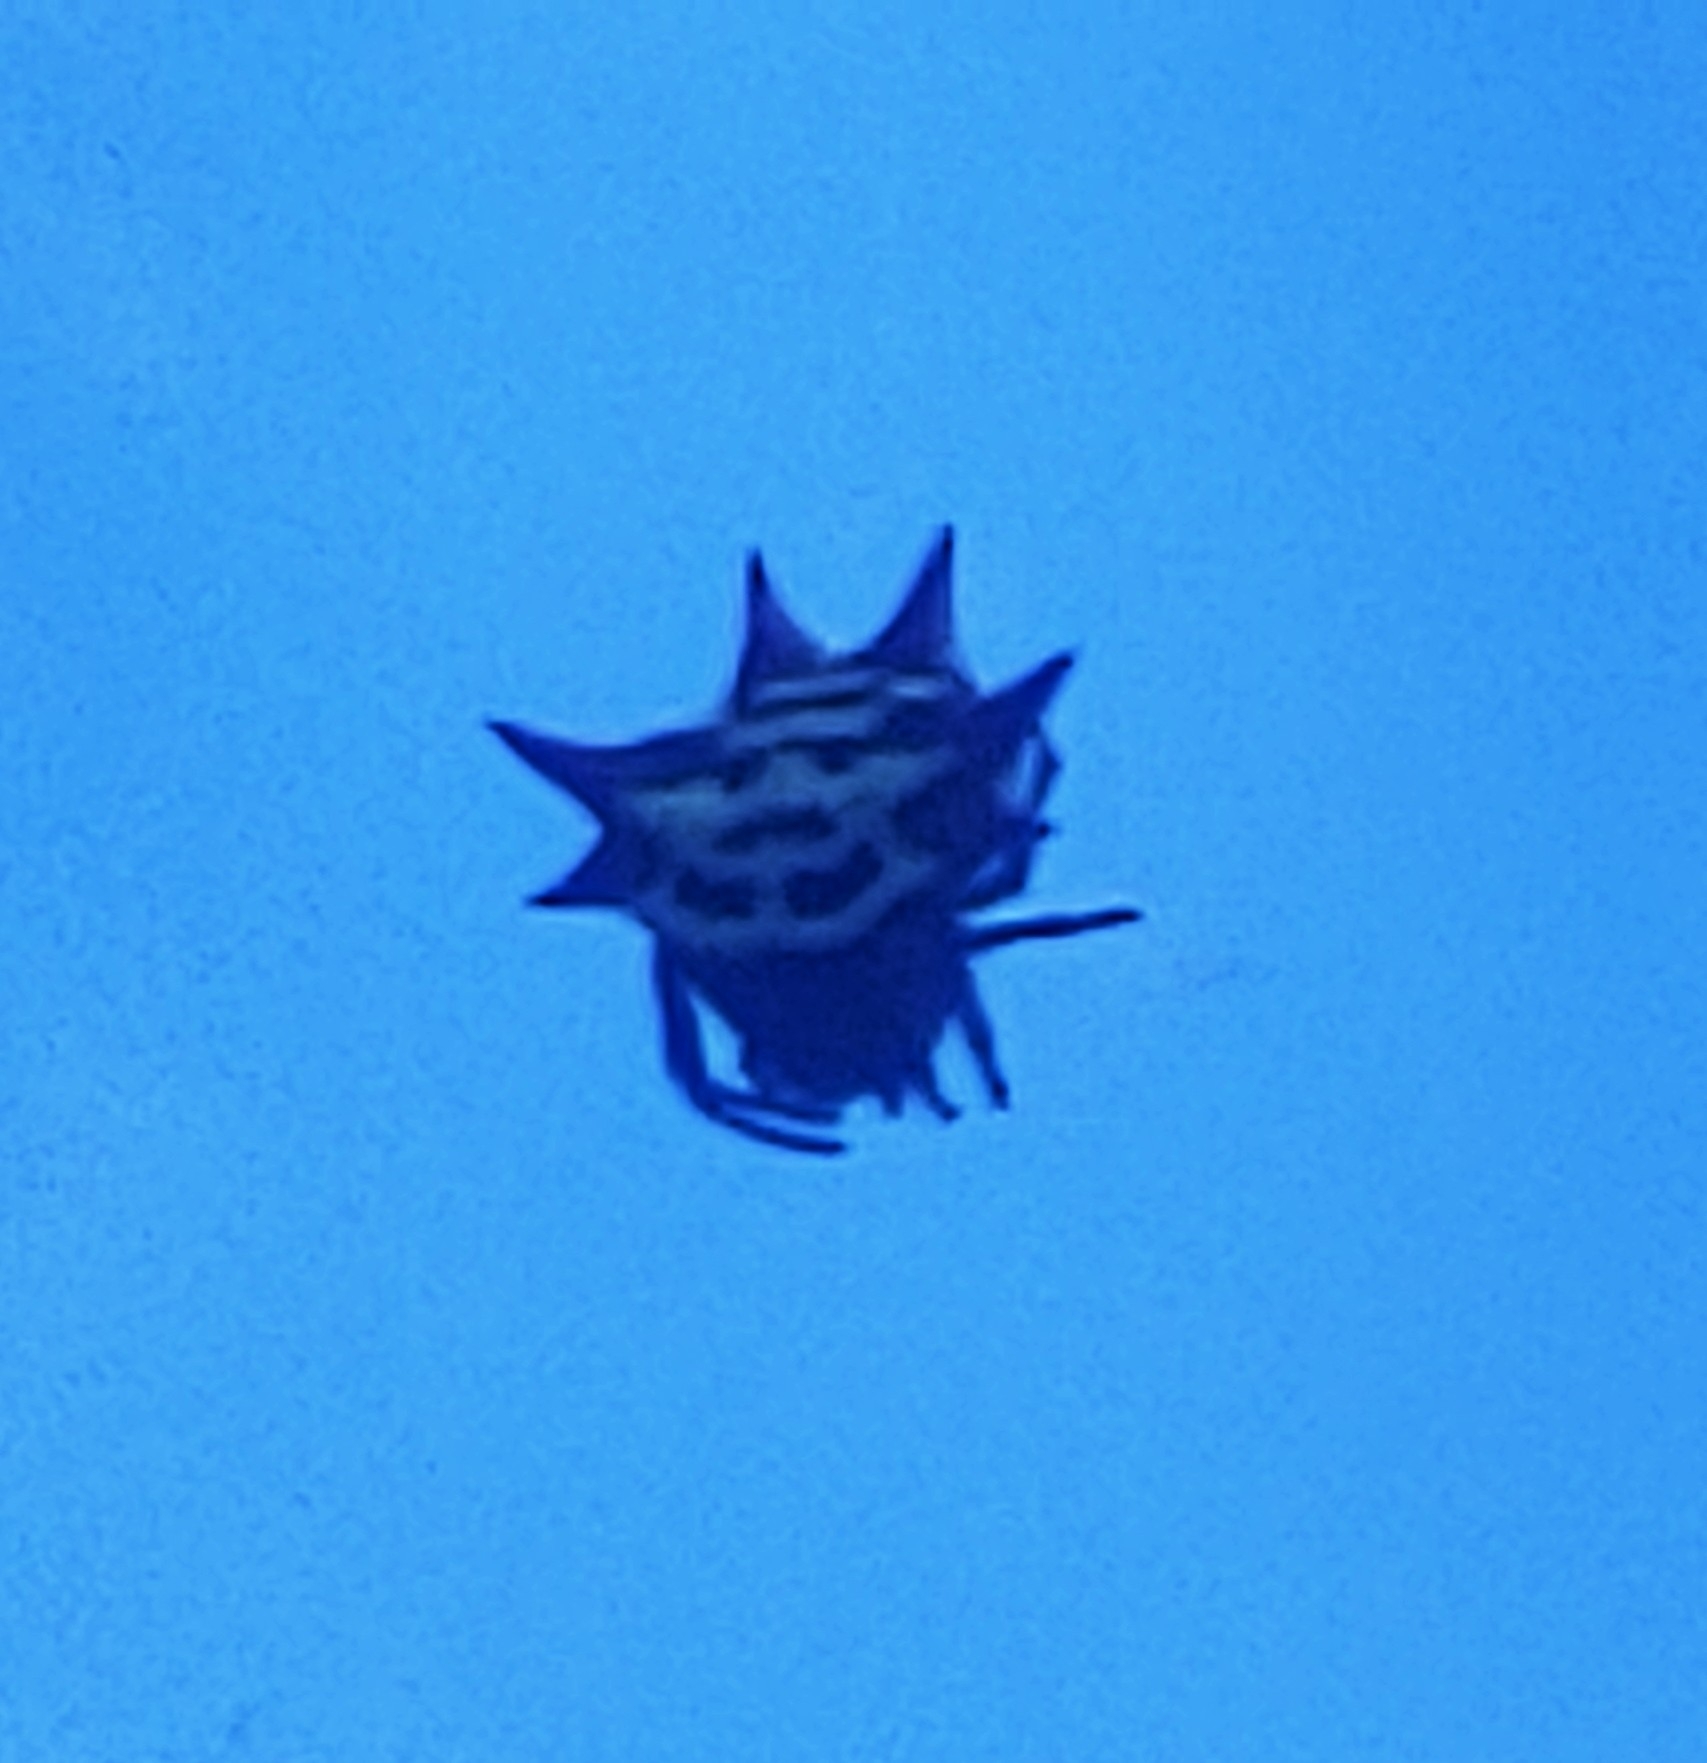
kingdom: Animalia
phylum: Arthropoda
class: Arachnida
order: Araneae
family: Araneidae
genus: Gasteracantha
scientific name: Gasteracantha cancriformis
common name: Orb weavers
